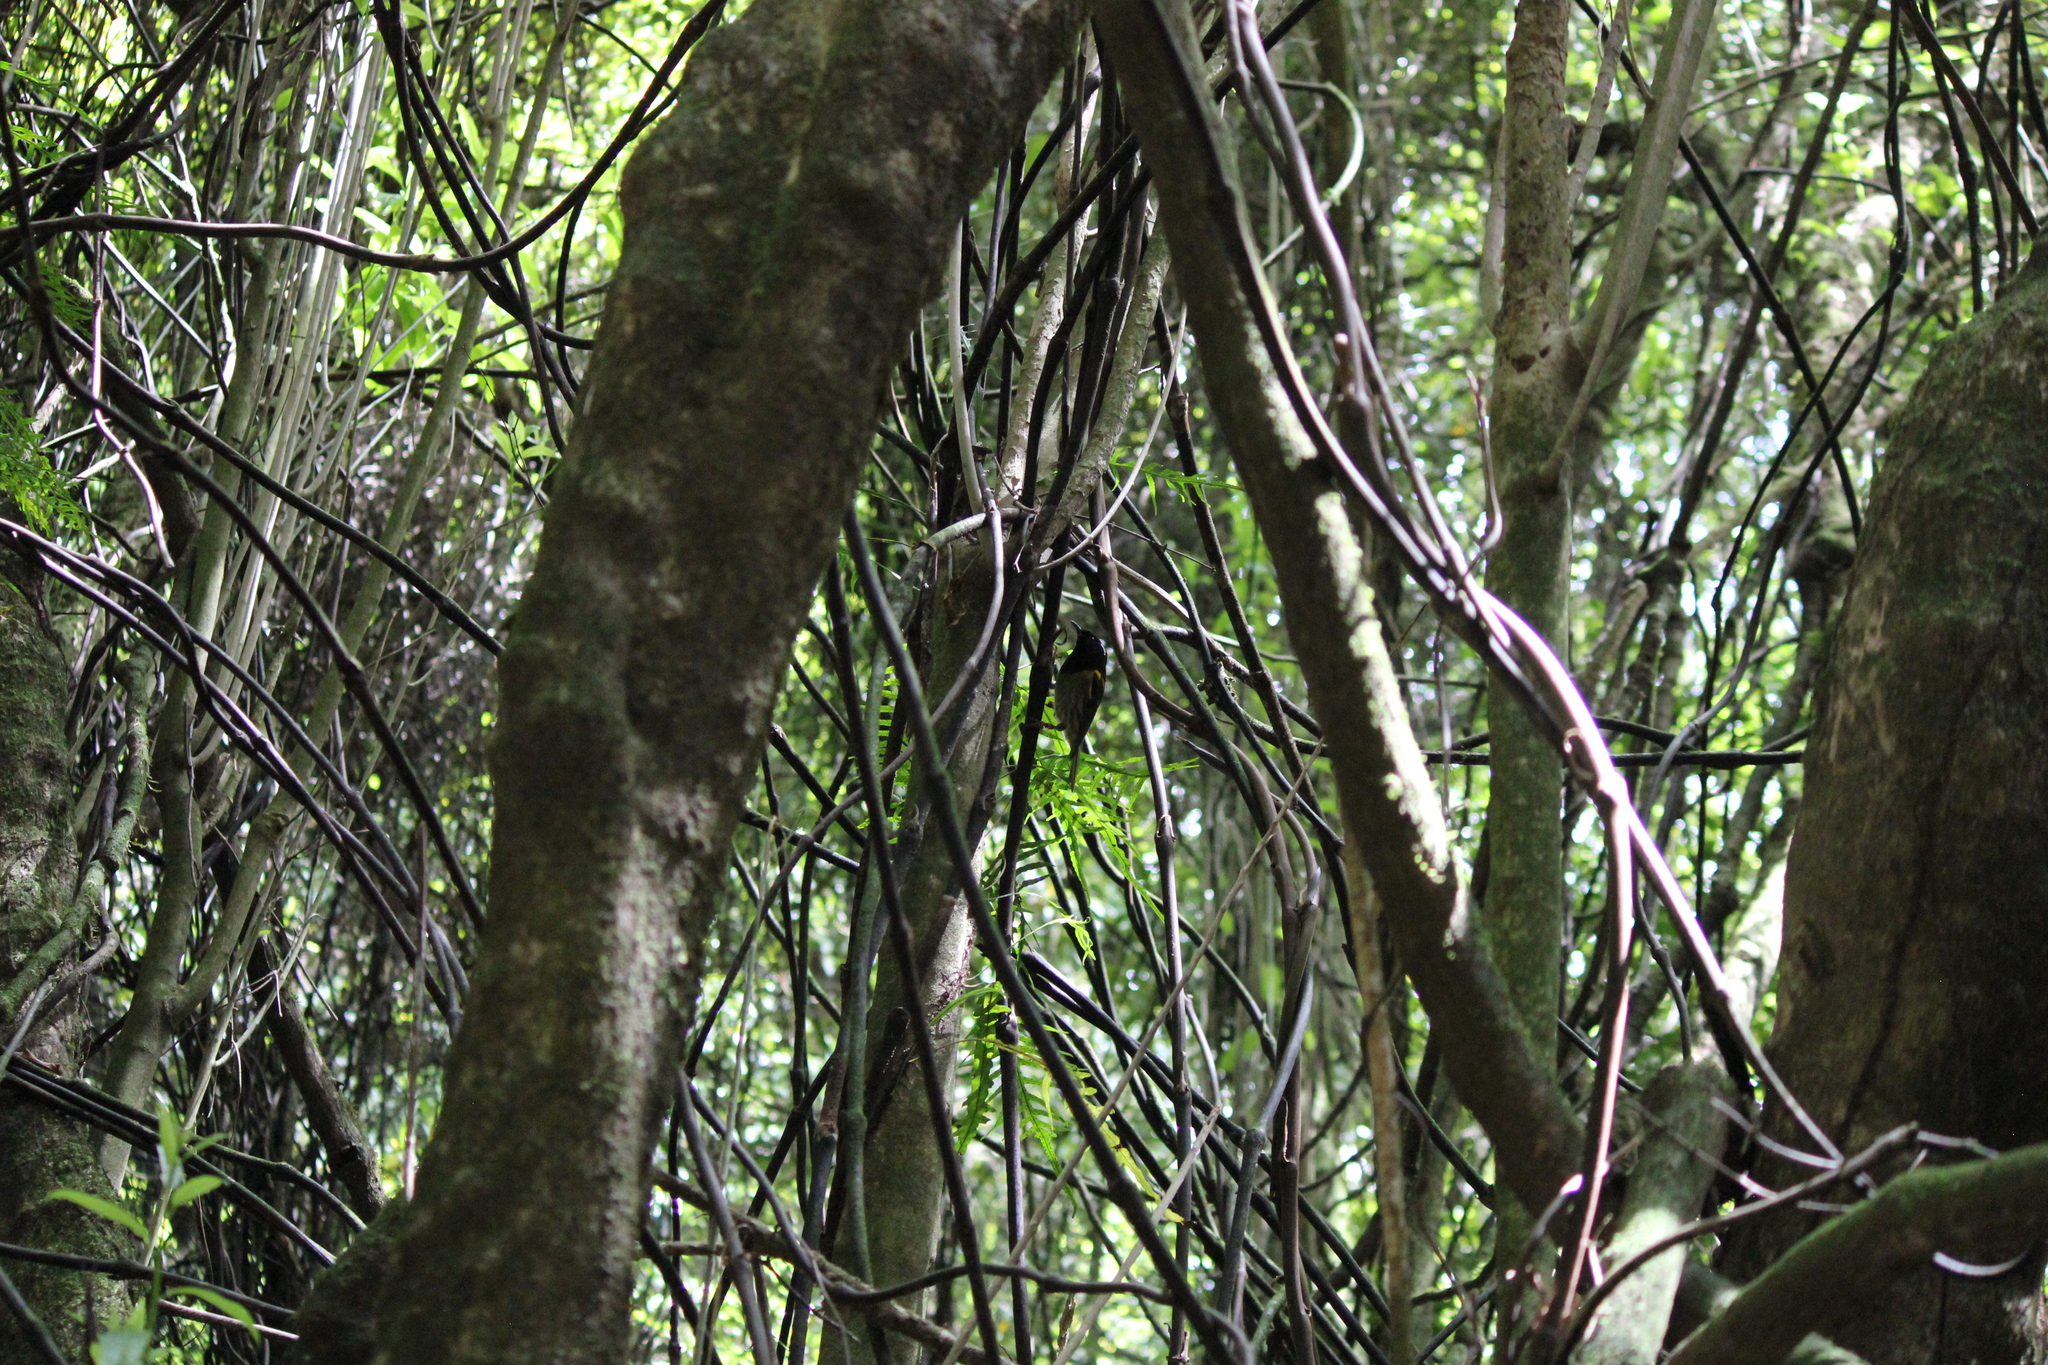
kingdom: Animalia
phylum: Chordata
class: Aves
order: Passeriformes
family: Notiomystidae
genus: Notiomystis
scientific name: Notiomystis cincta
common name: Stitchbird
